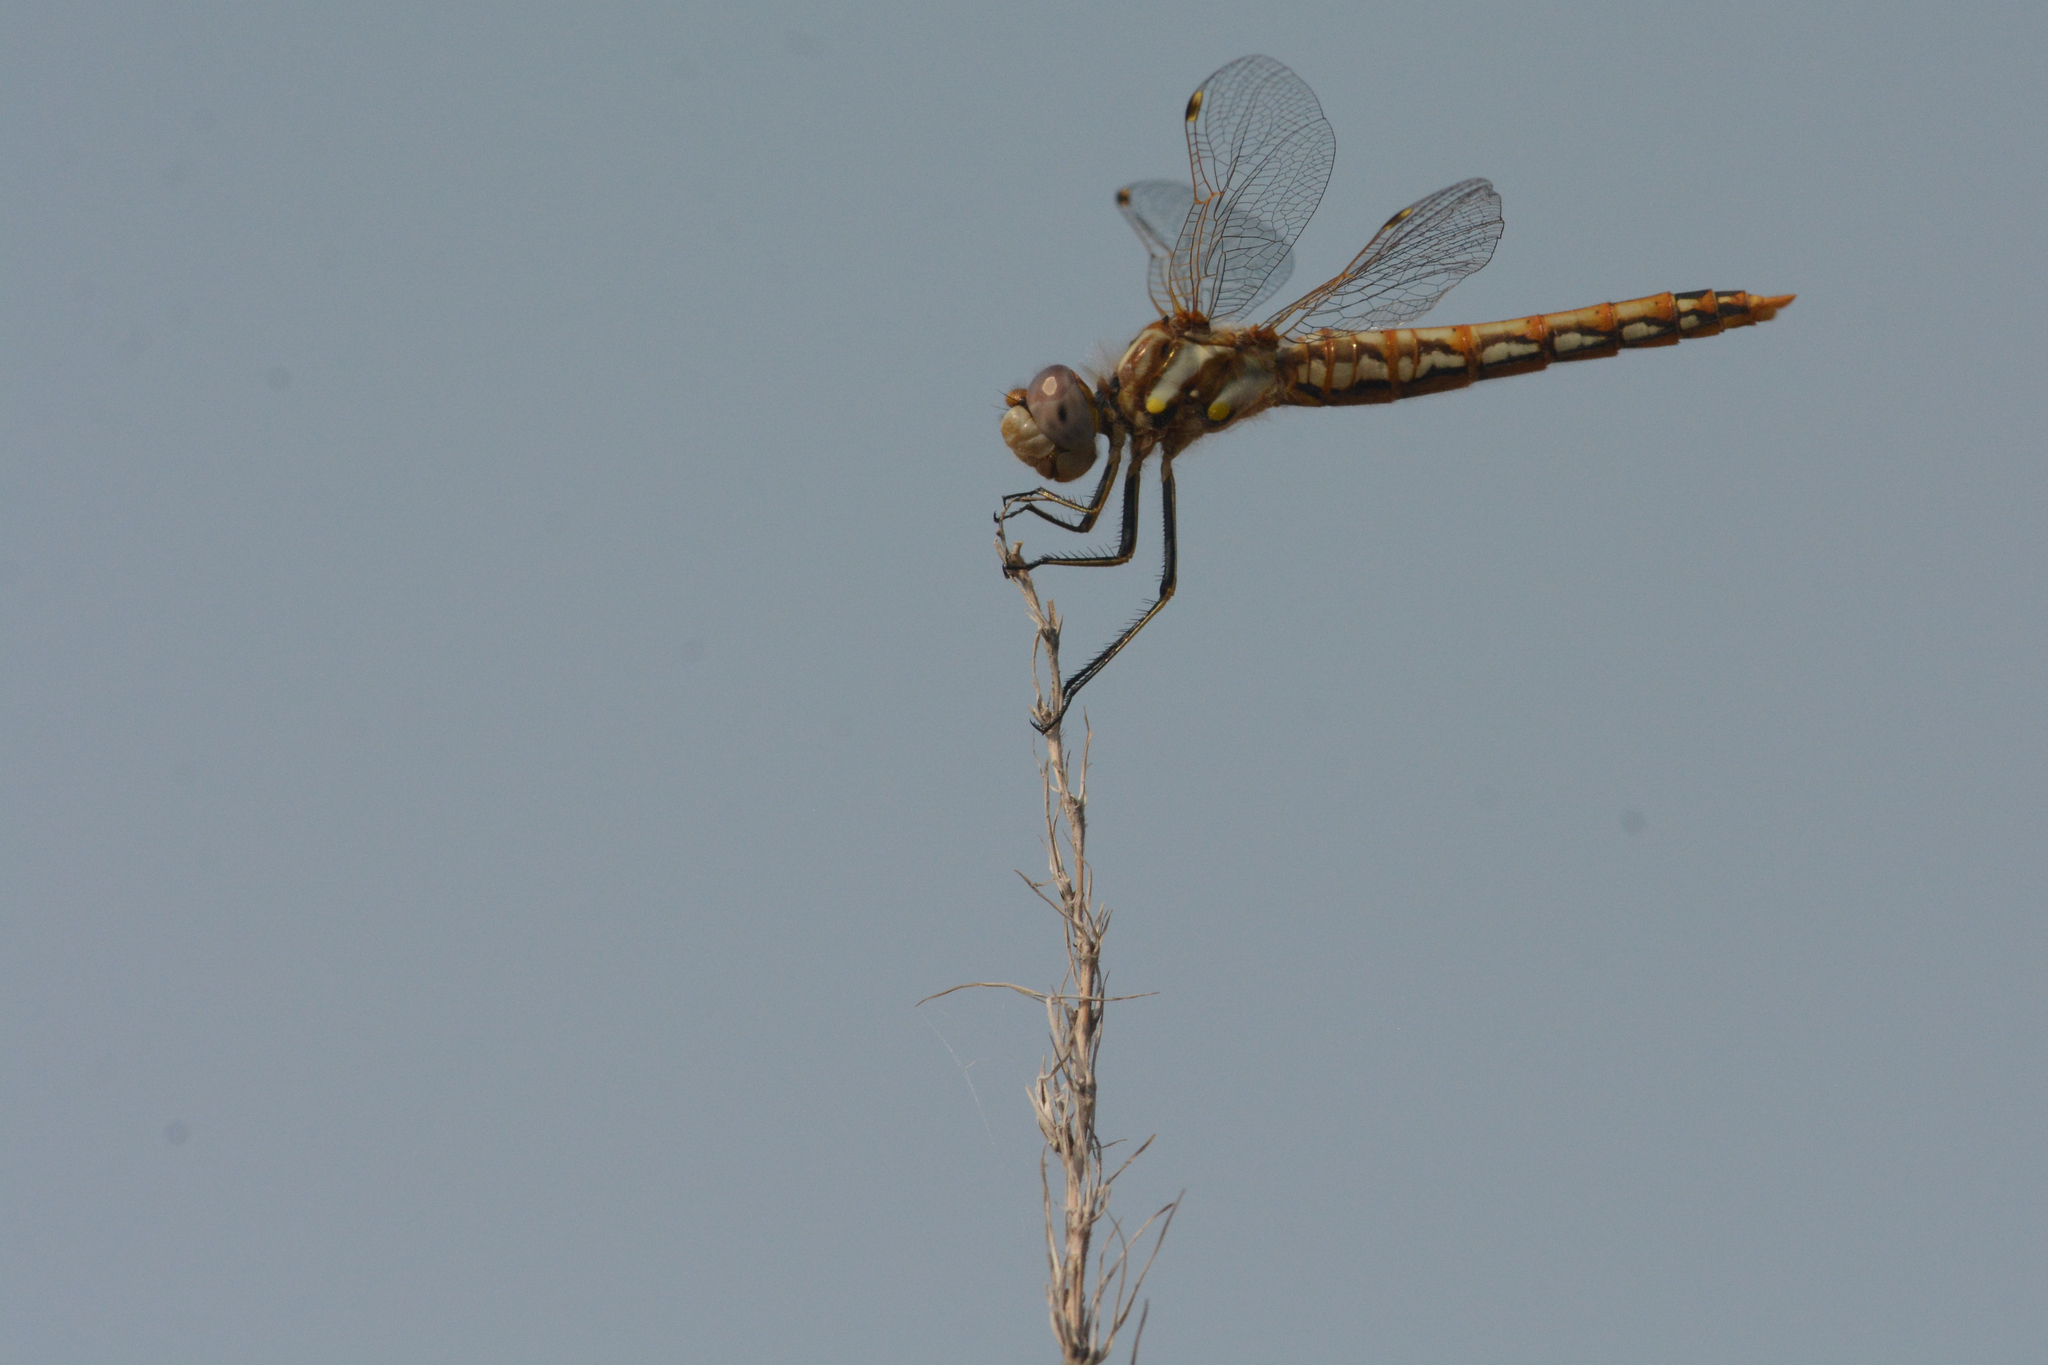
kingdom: Animalia
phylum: Arthropoda
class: Insecta
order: Odonata
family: Libellulidae
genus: Sympetrum
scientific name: Sympetrum corruptum
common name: Variegated meadowhawk
